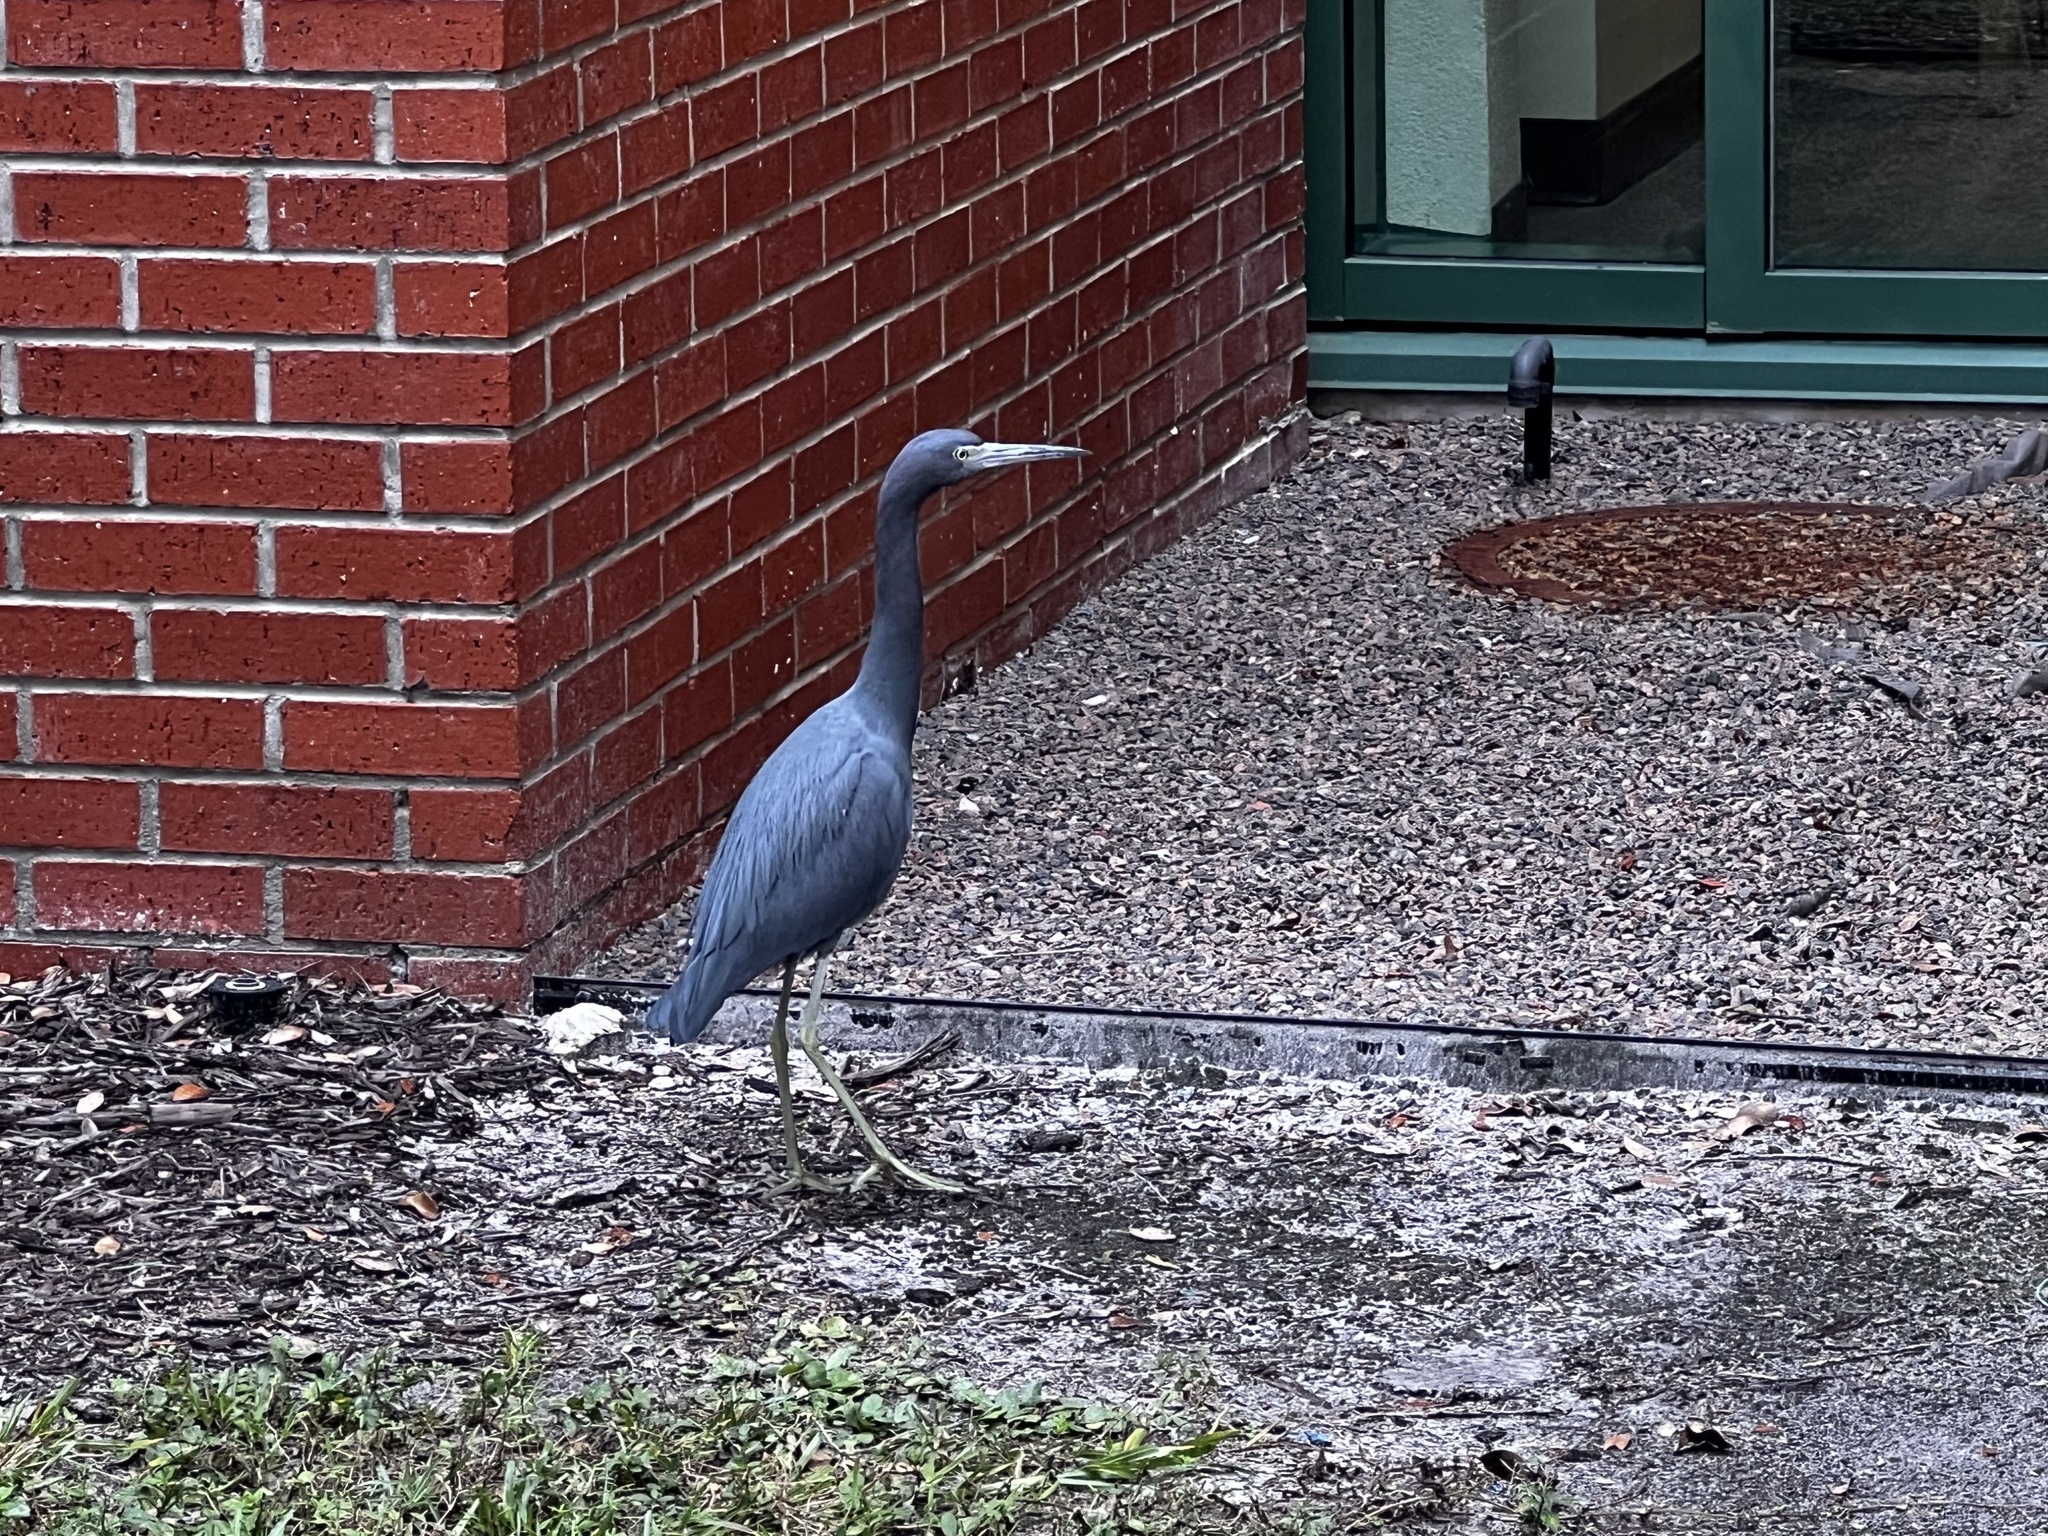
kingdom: Animalia
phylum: Chordata
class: Aves
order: Pelecaniformes
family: Ardeidae
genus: Egretta
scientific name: Egretta caerulea
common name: Little blue heron
